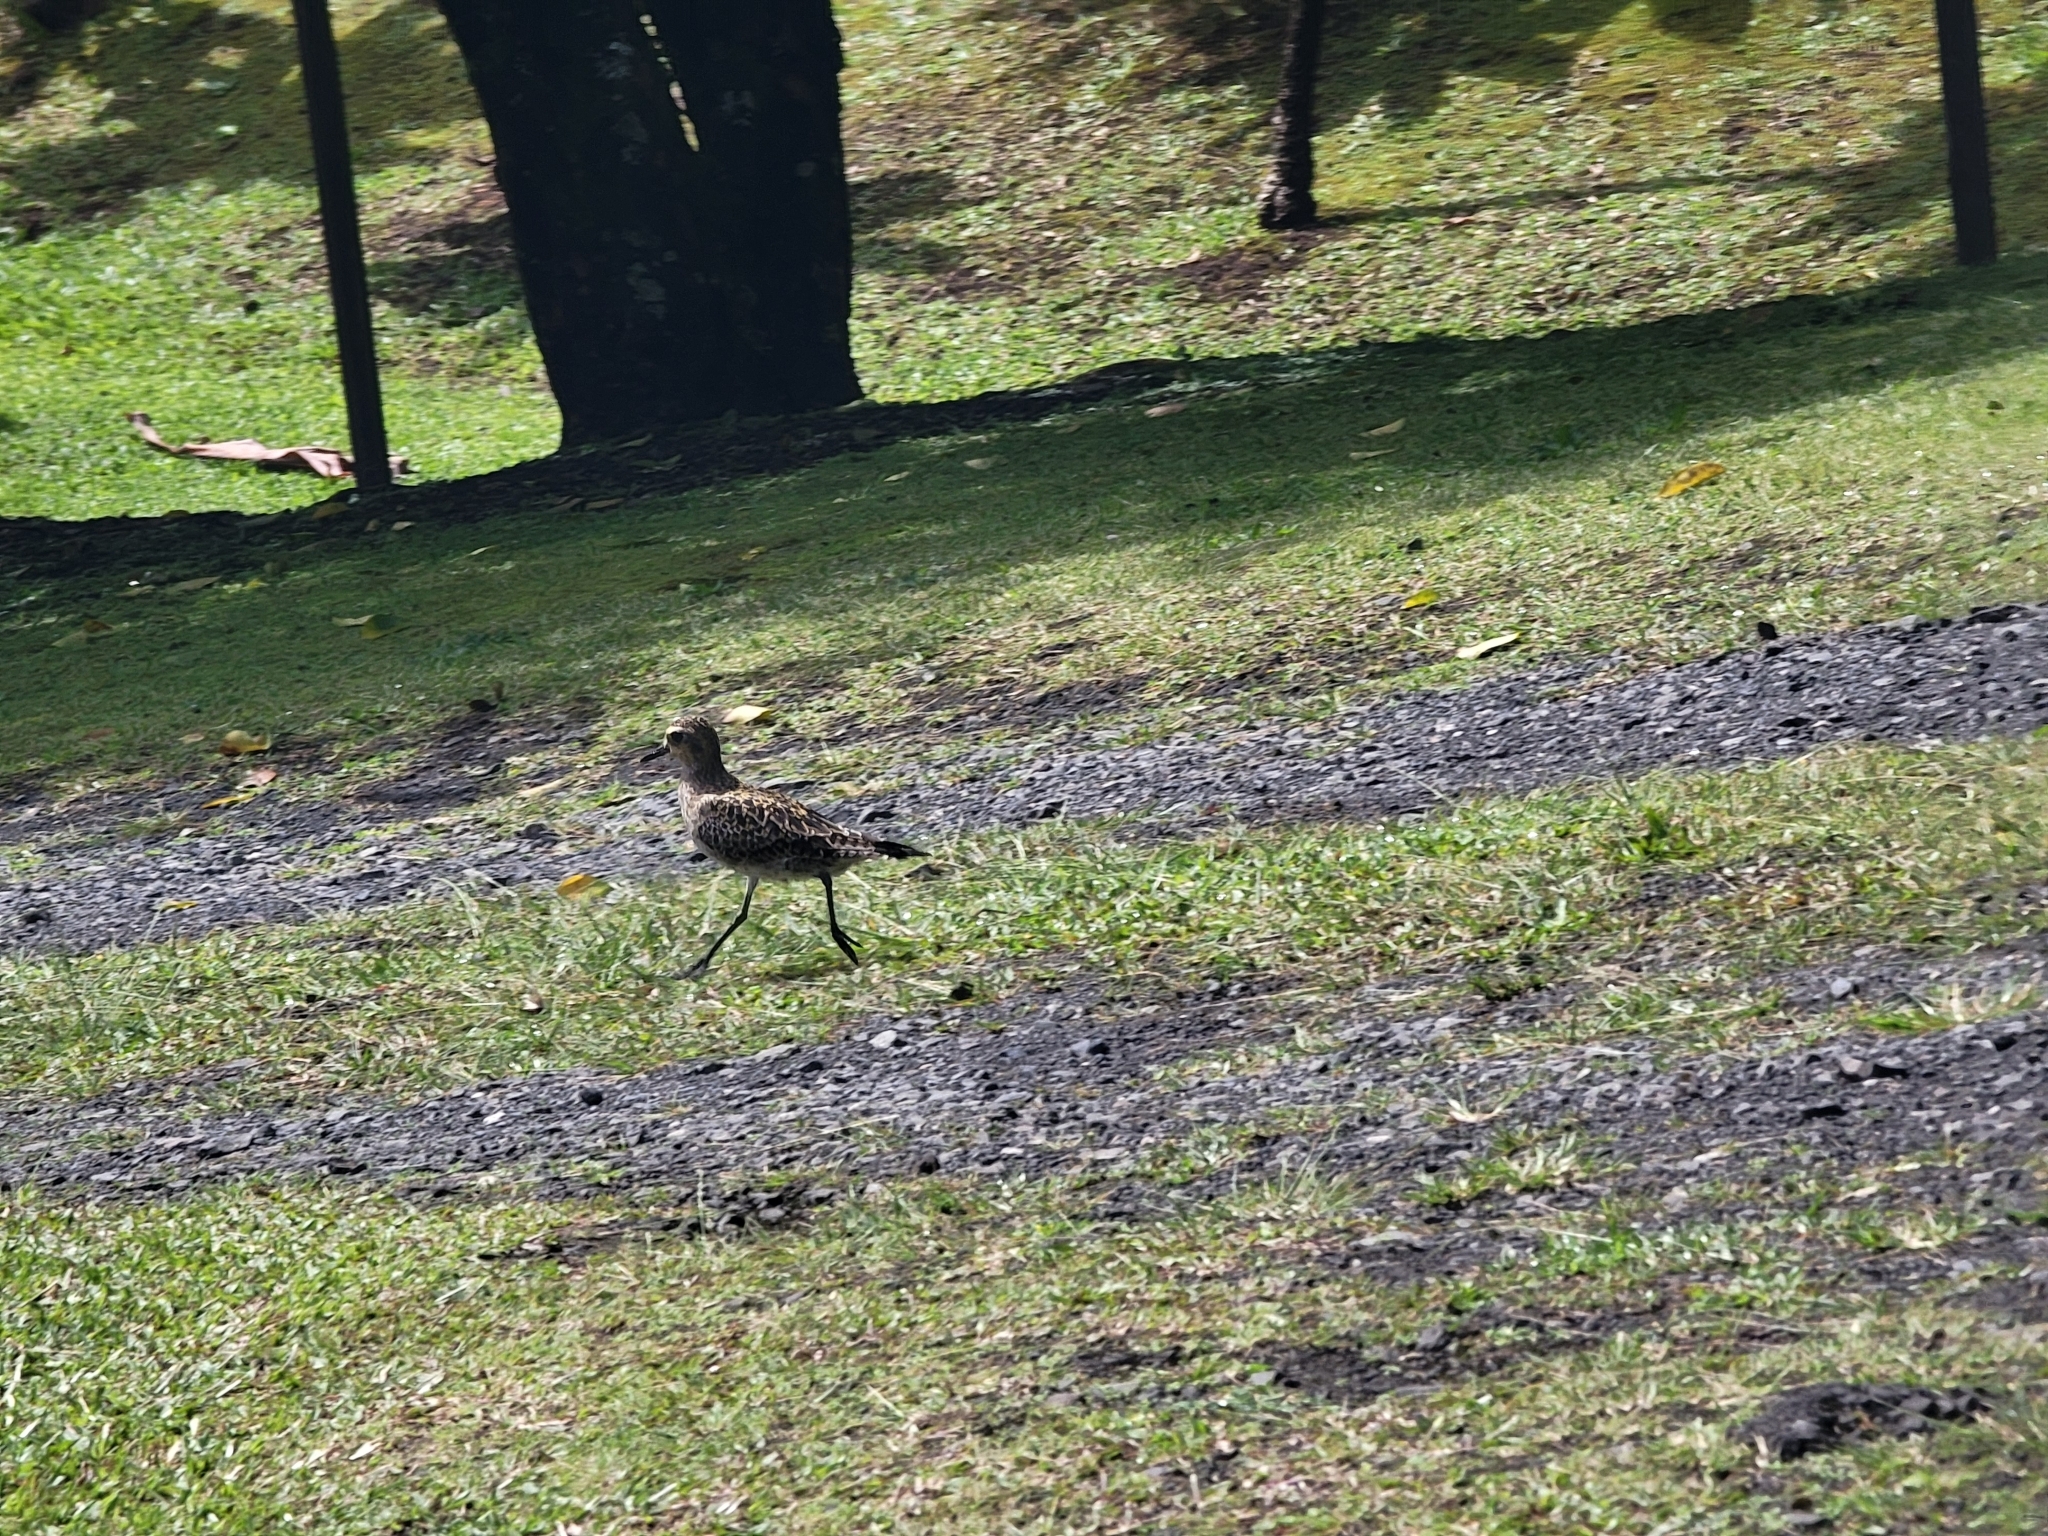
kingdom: Animalia
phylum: Chordata
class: Aves
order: Charadriiformes
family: Charadriidae
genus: Pluvialis
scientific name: Pluvialis fulva
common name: Pacific golden plover
